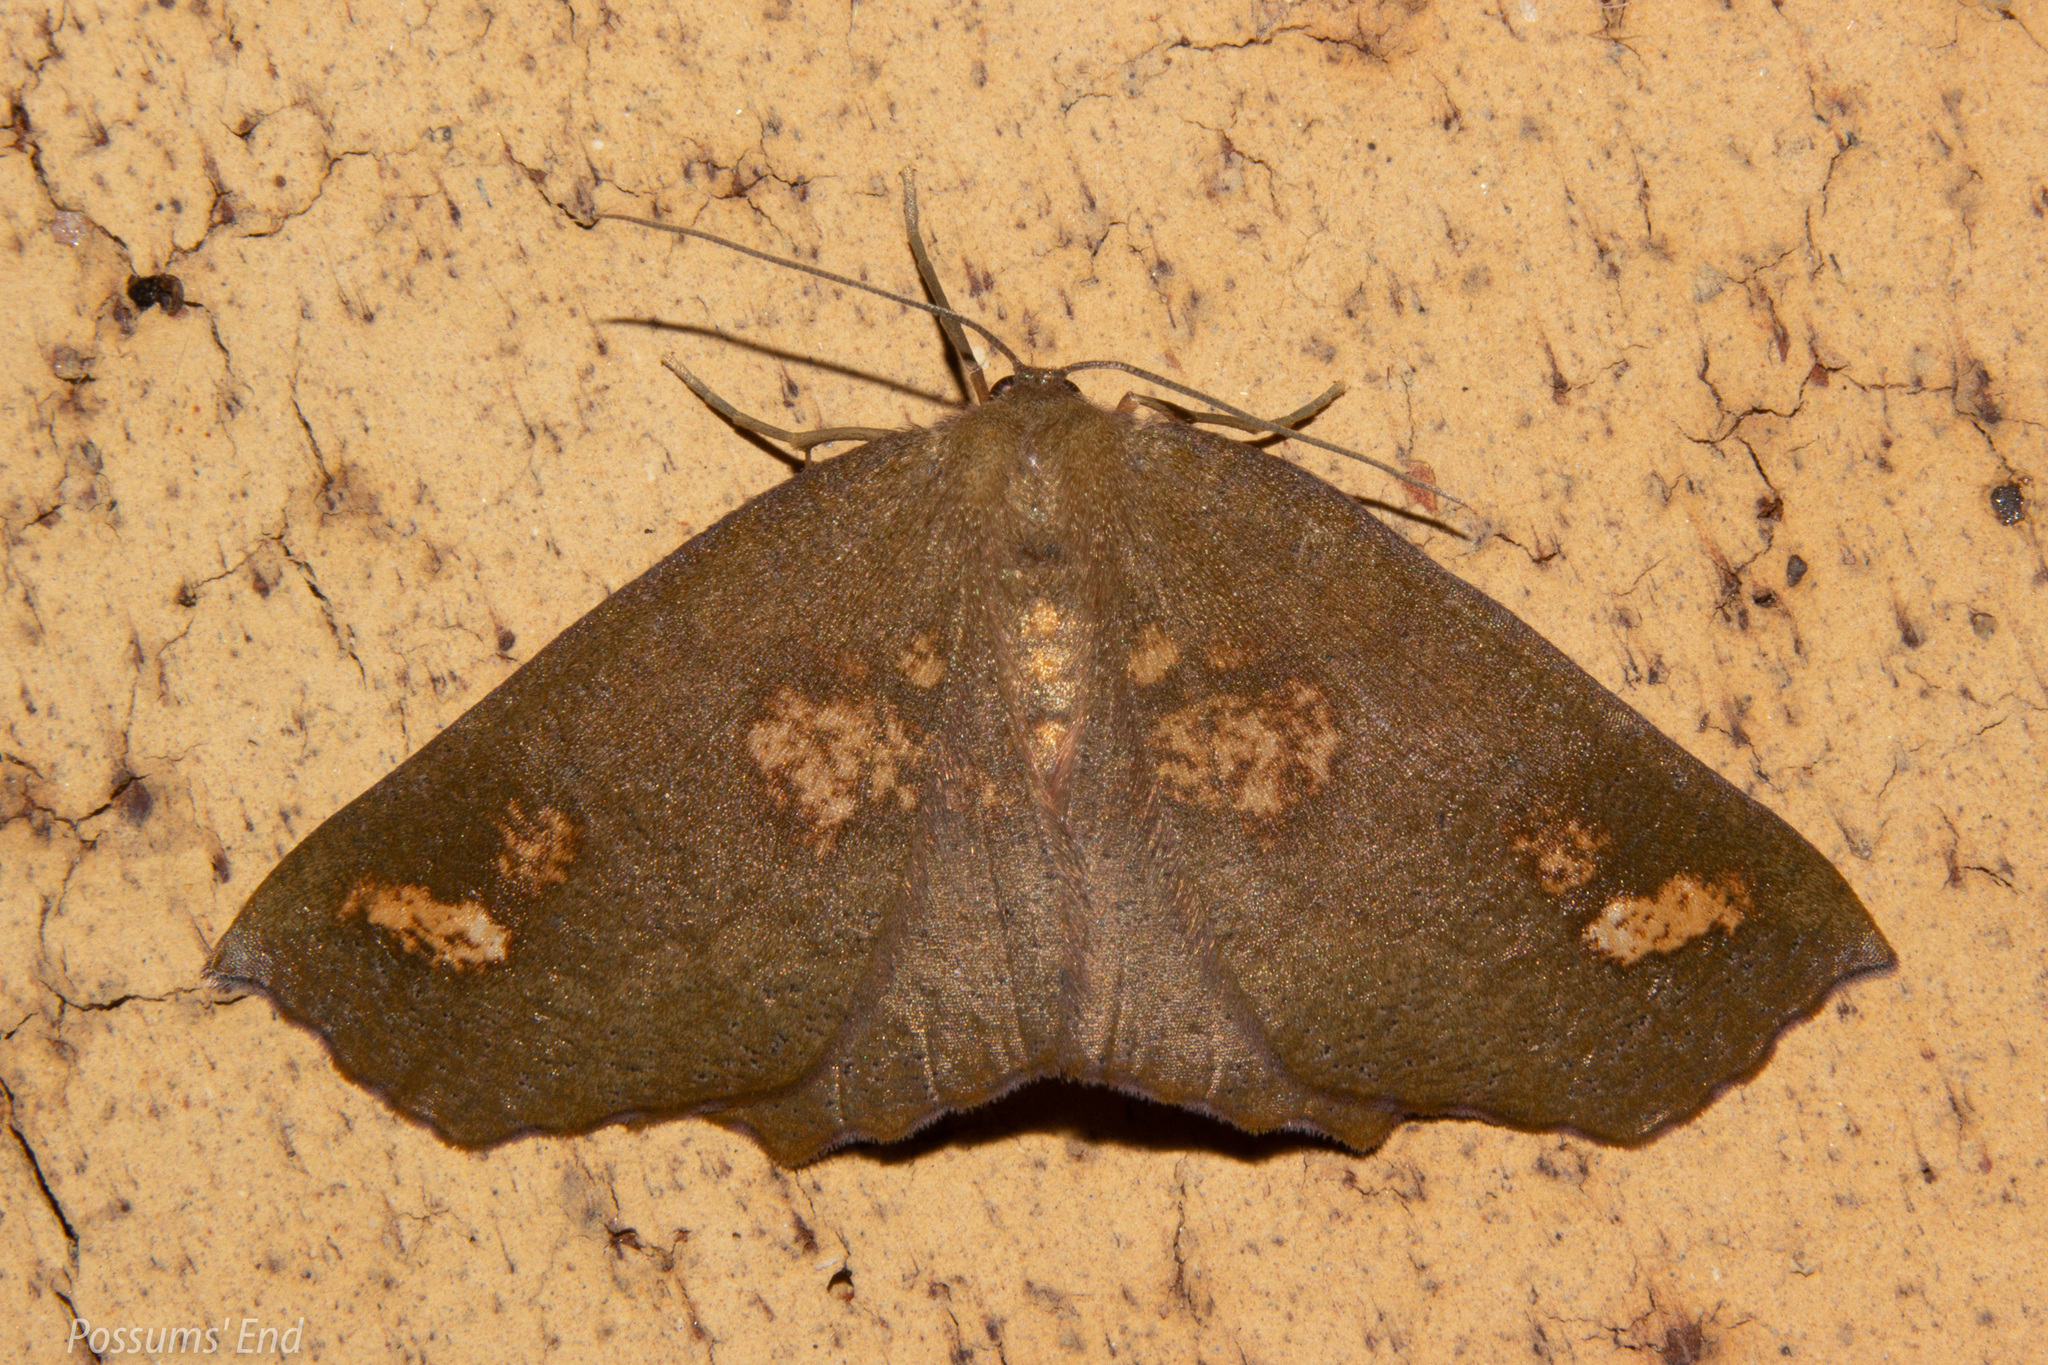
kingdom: Animalia
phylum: Arthropoda
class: Insecta
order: Lepidoptera
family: Geometridae
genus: Xyridacma
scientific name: Xyridacma ustaria
